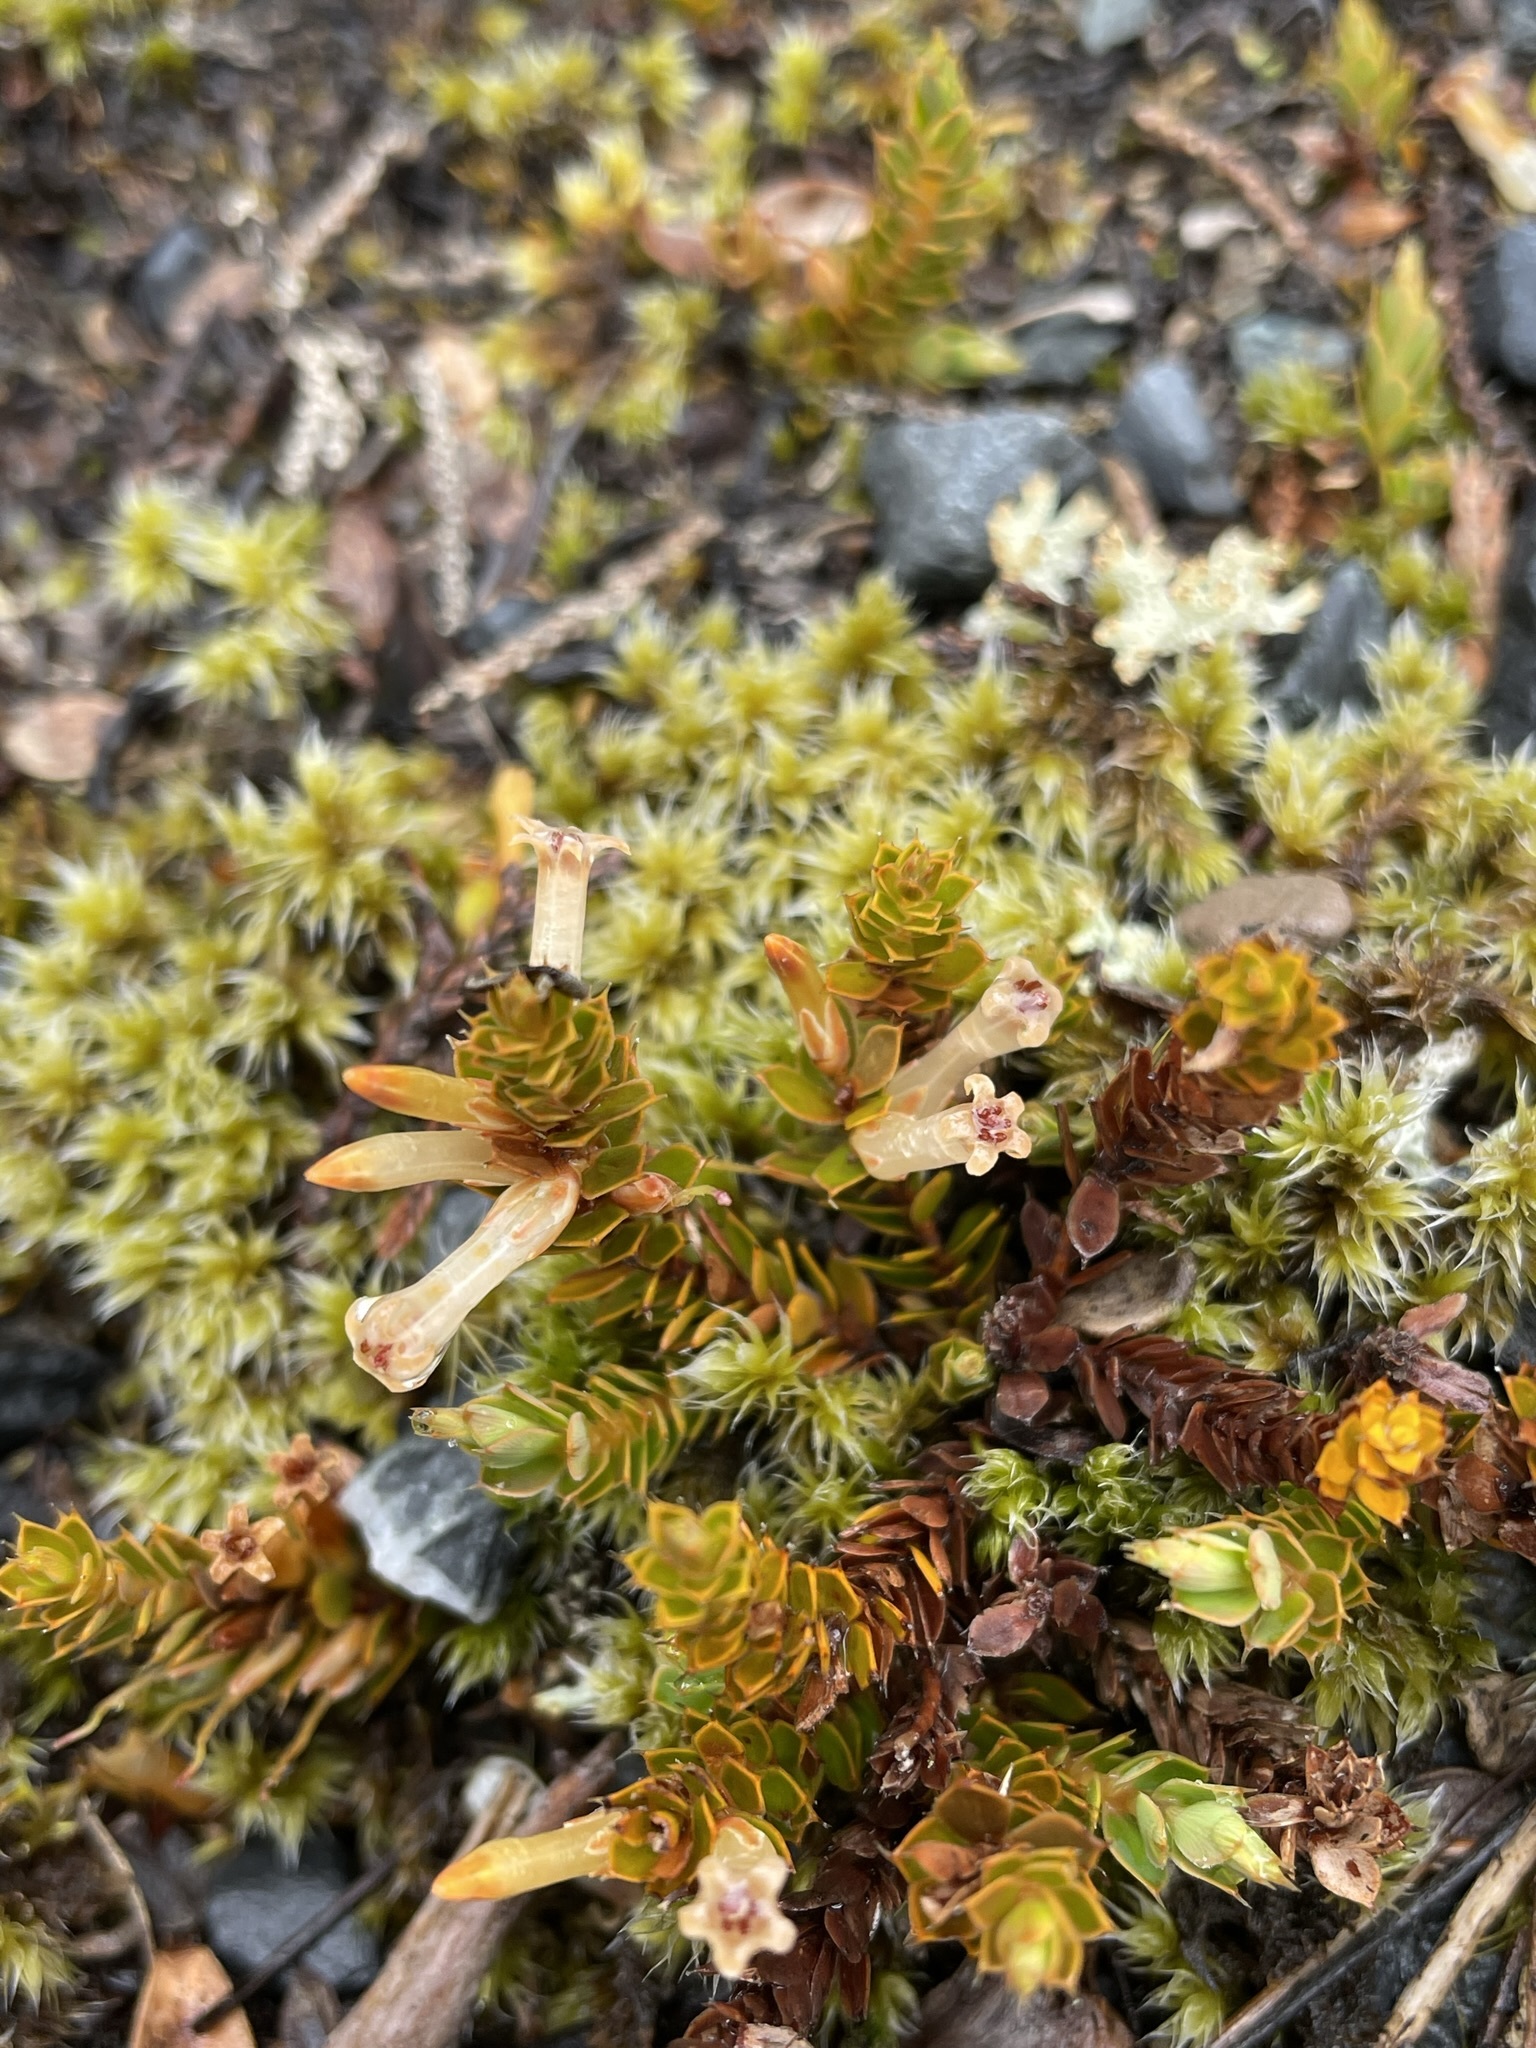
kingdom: Plantae
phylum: Tracheophyta
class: Magnoliopsida
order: Ericales
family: Ericaceae
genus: Styphelia
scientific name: Styphelia nesophila
